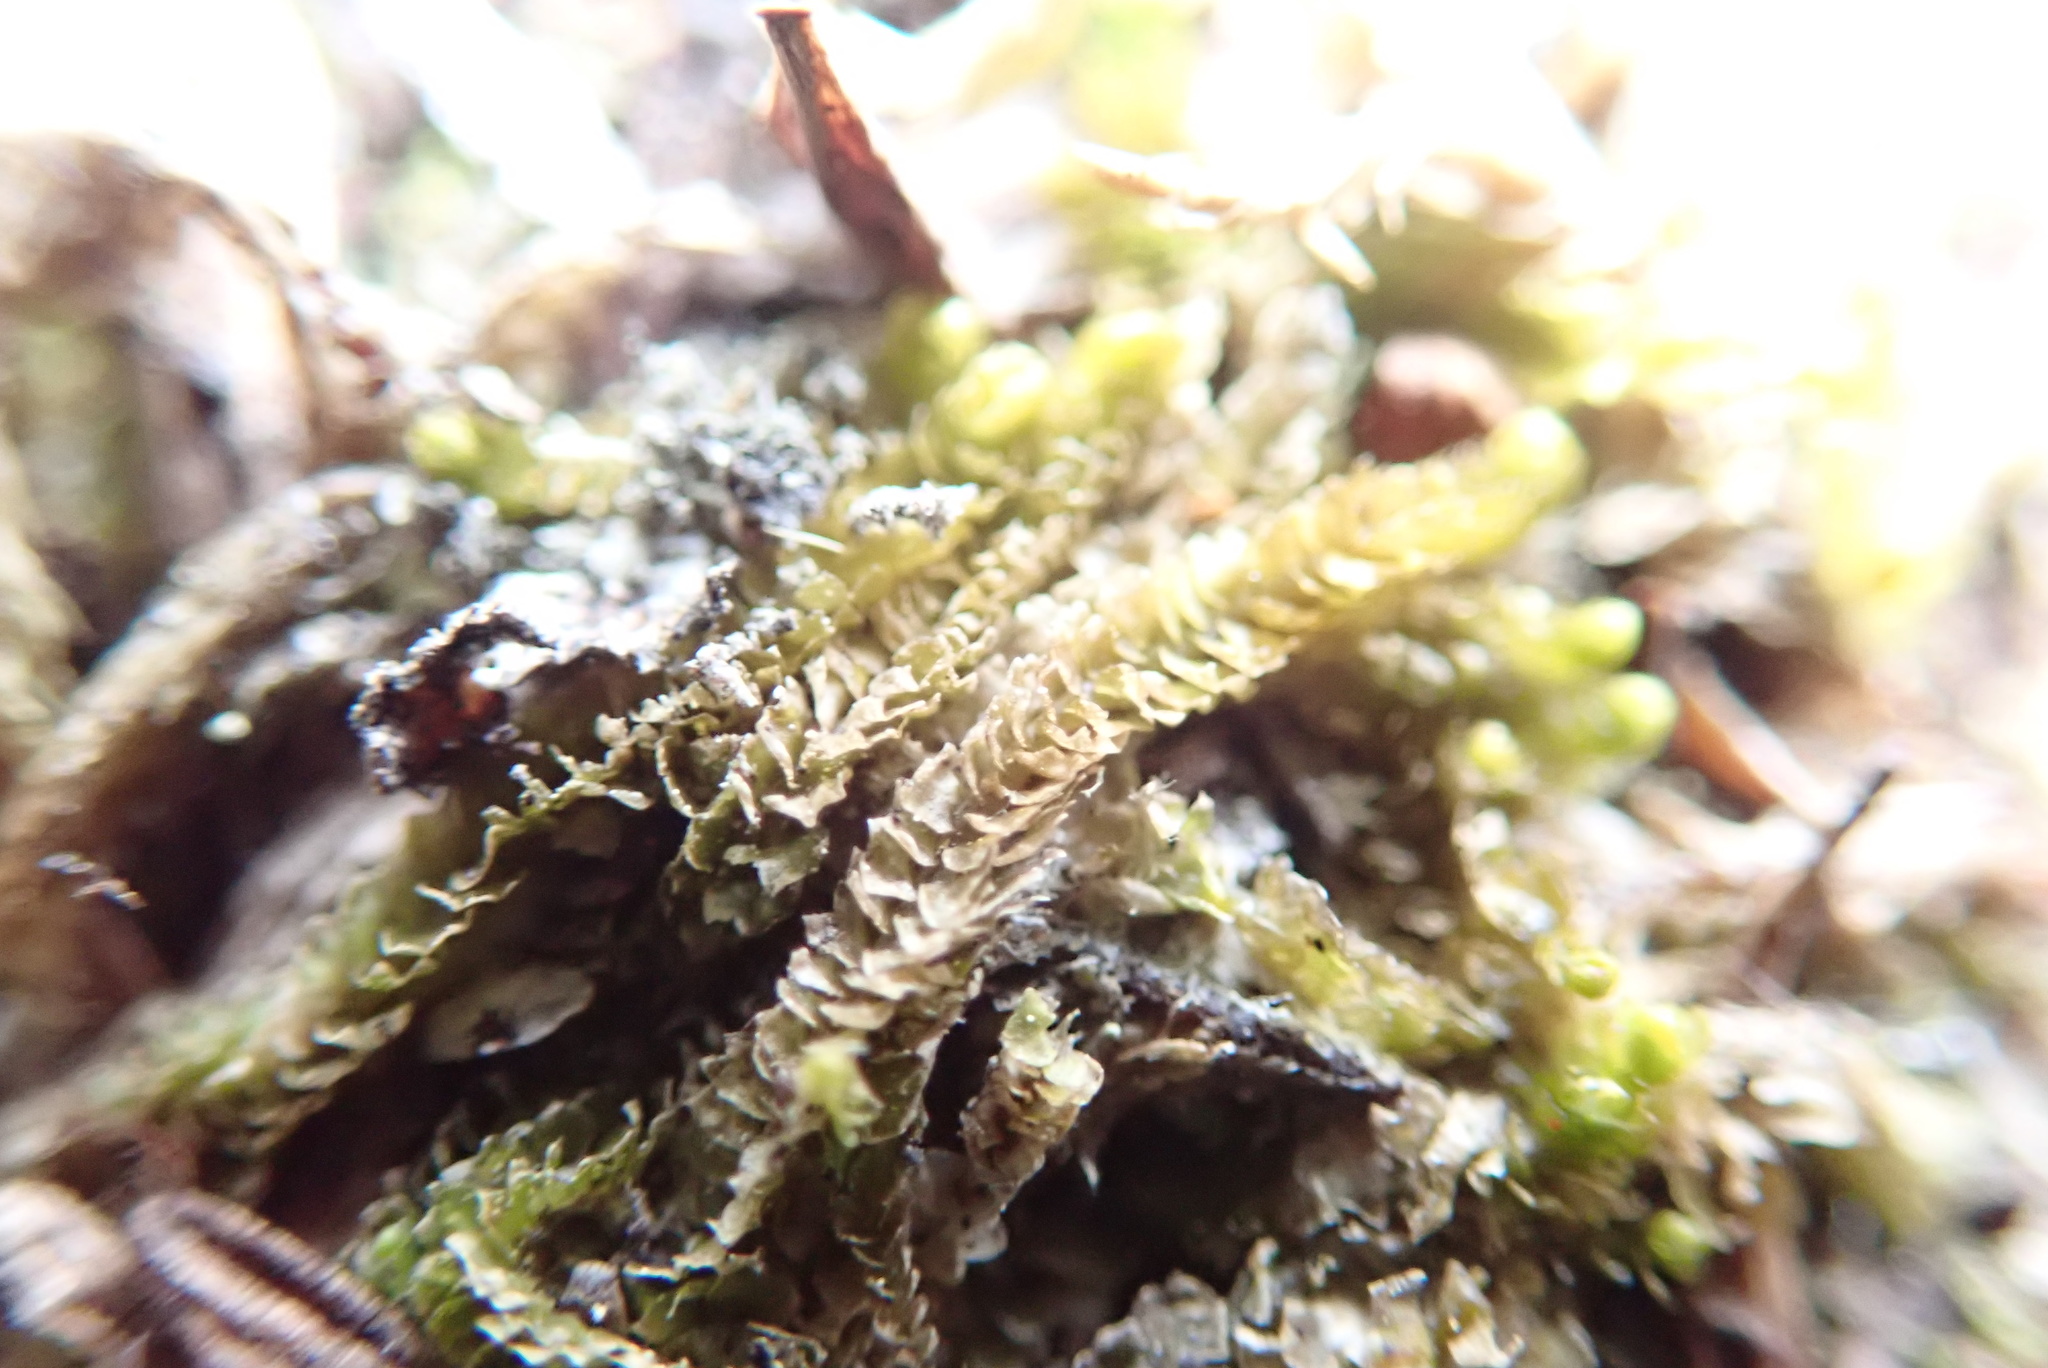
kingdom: Plantae
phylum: Marchantiophyta
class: Jungermanniopsida
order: Jungermanniales
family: Anastrophyllaceae
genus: Neoorthocaulis
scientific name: Neoorthocaulis floerkei
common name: Floerke's barbilophozia
